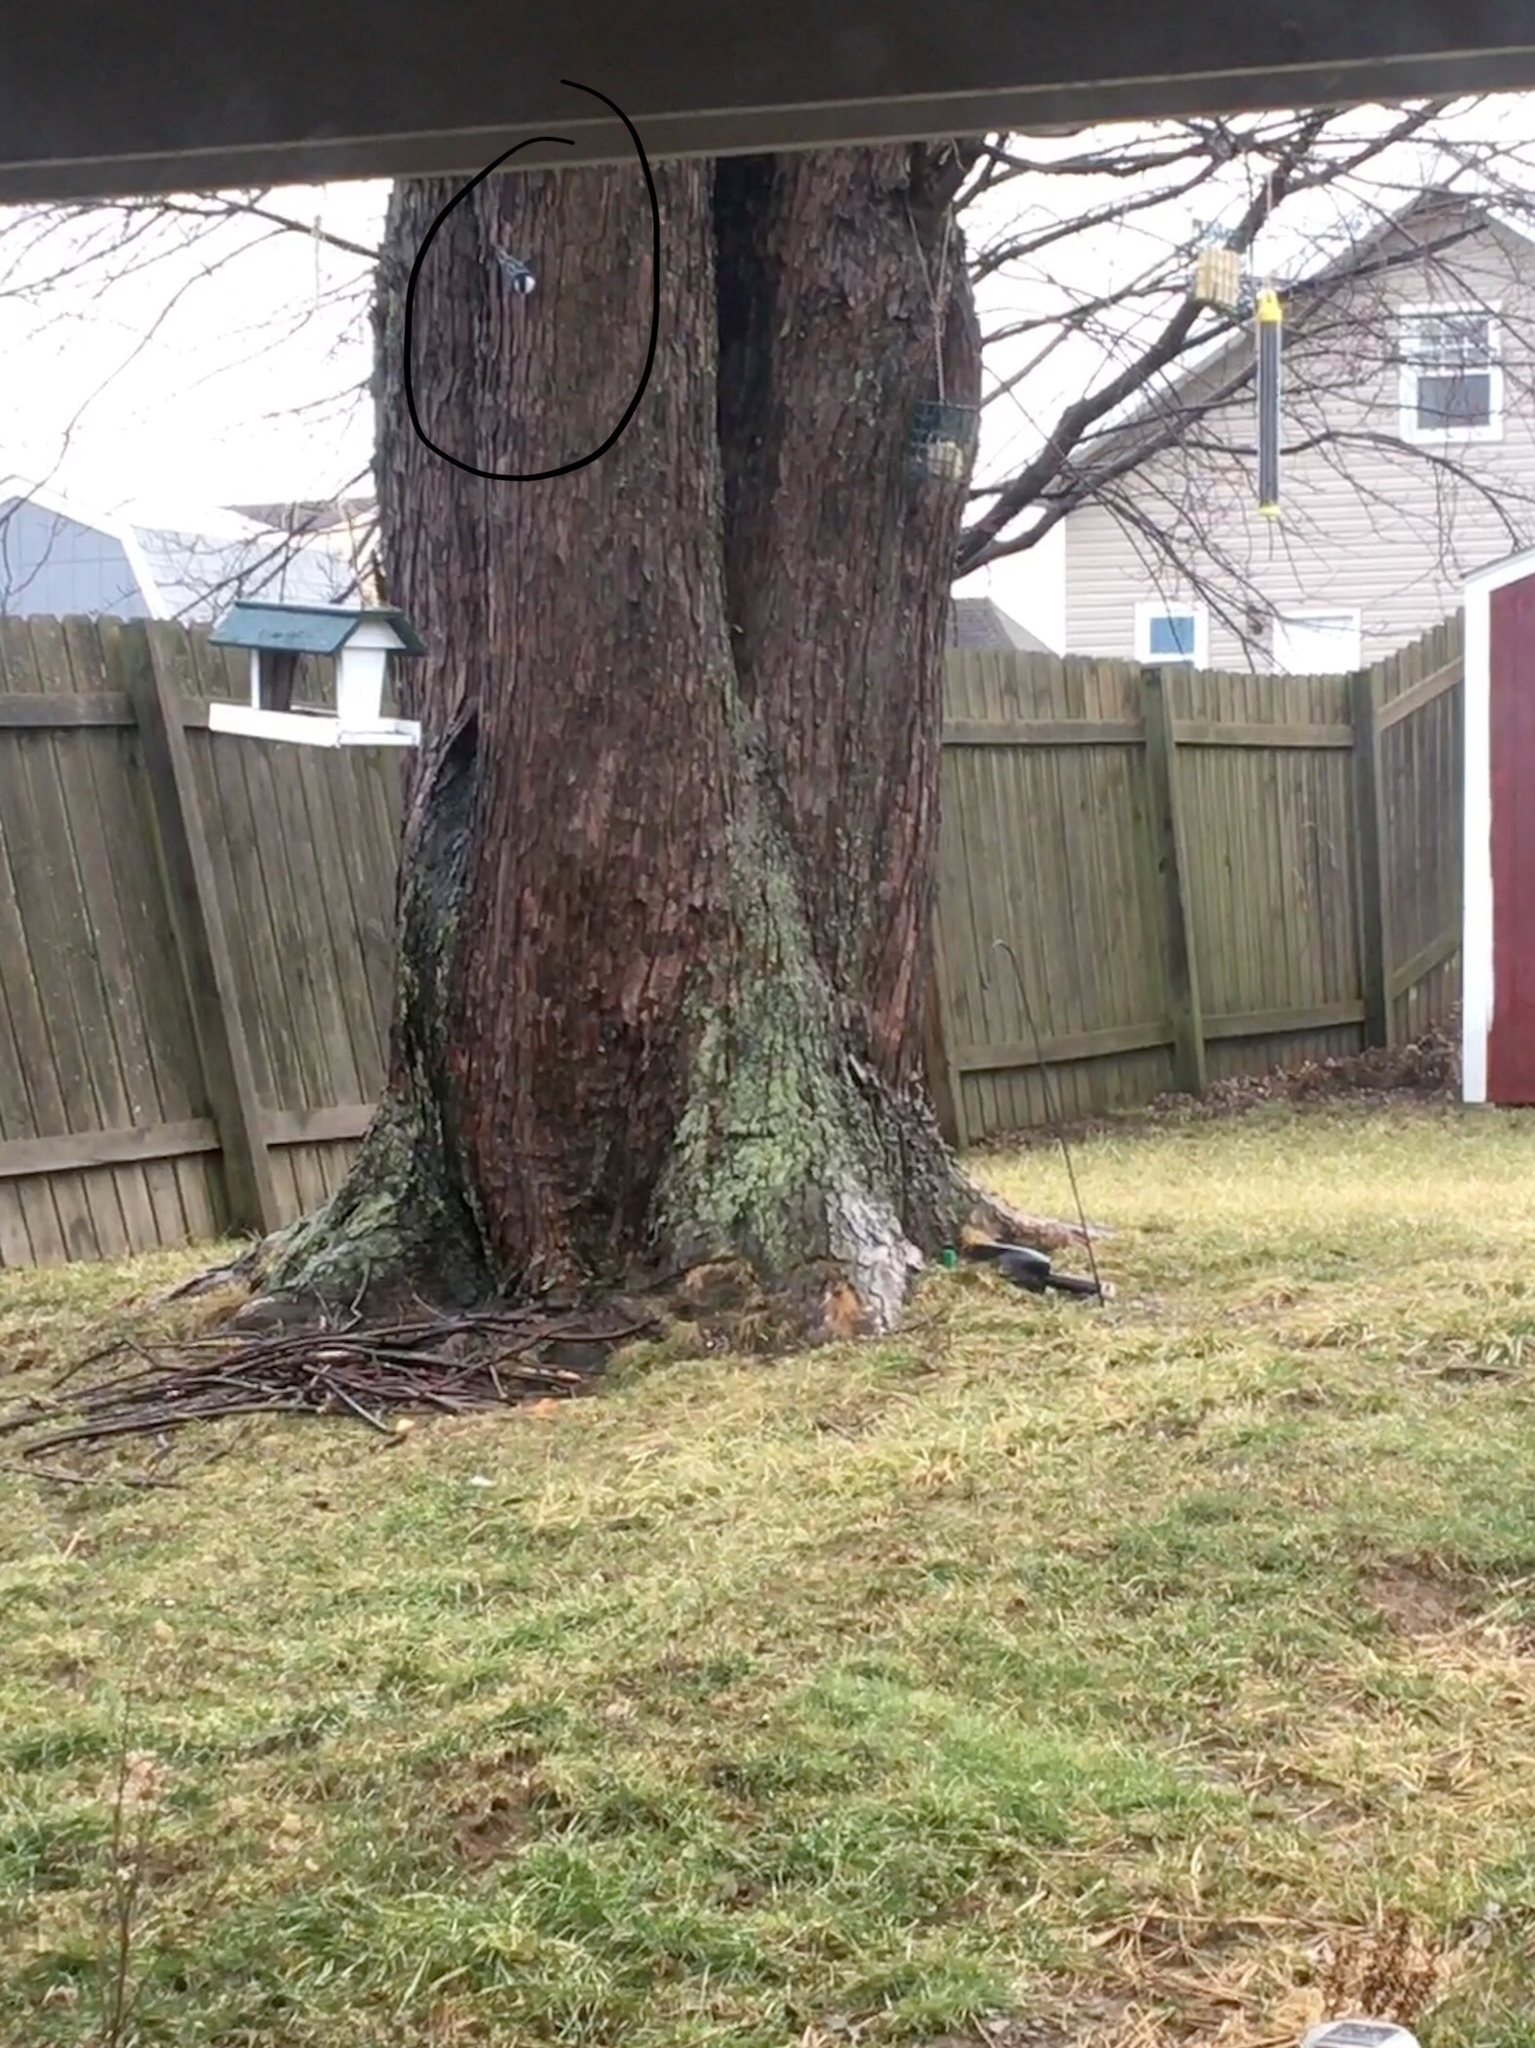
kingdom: Animalia
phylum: Chordata
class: Aves
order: Passeriformes
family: Sittidae
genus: Sitta
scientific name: Sitta carolinensis
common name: White-breasted nuthatch
